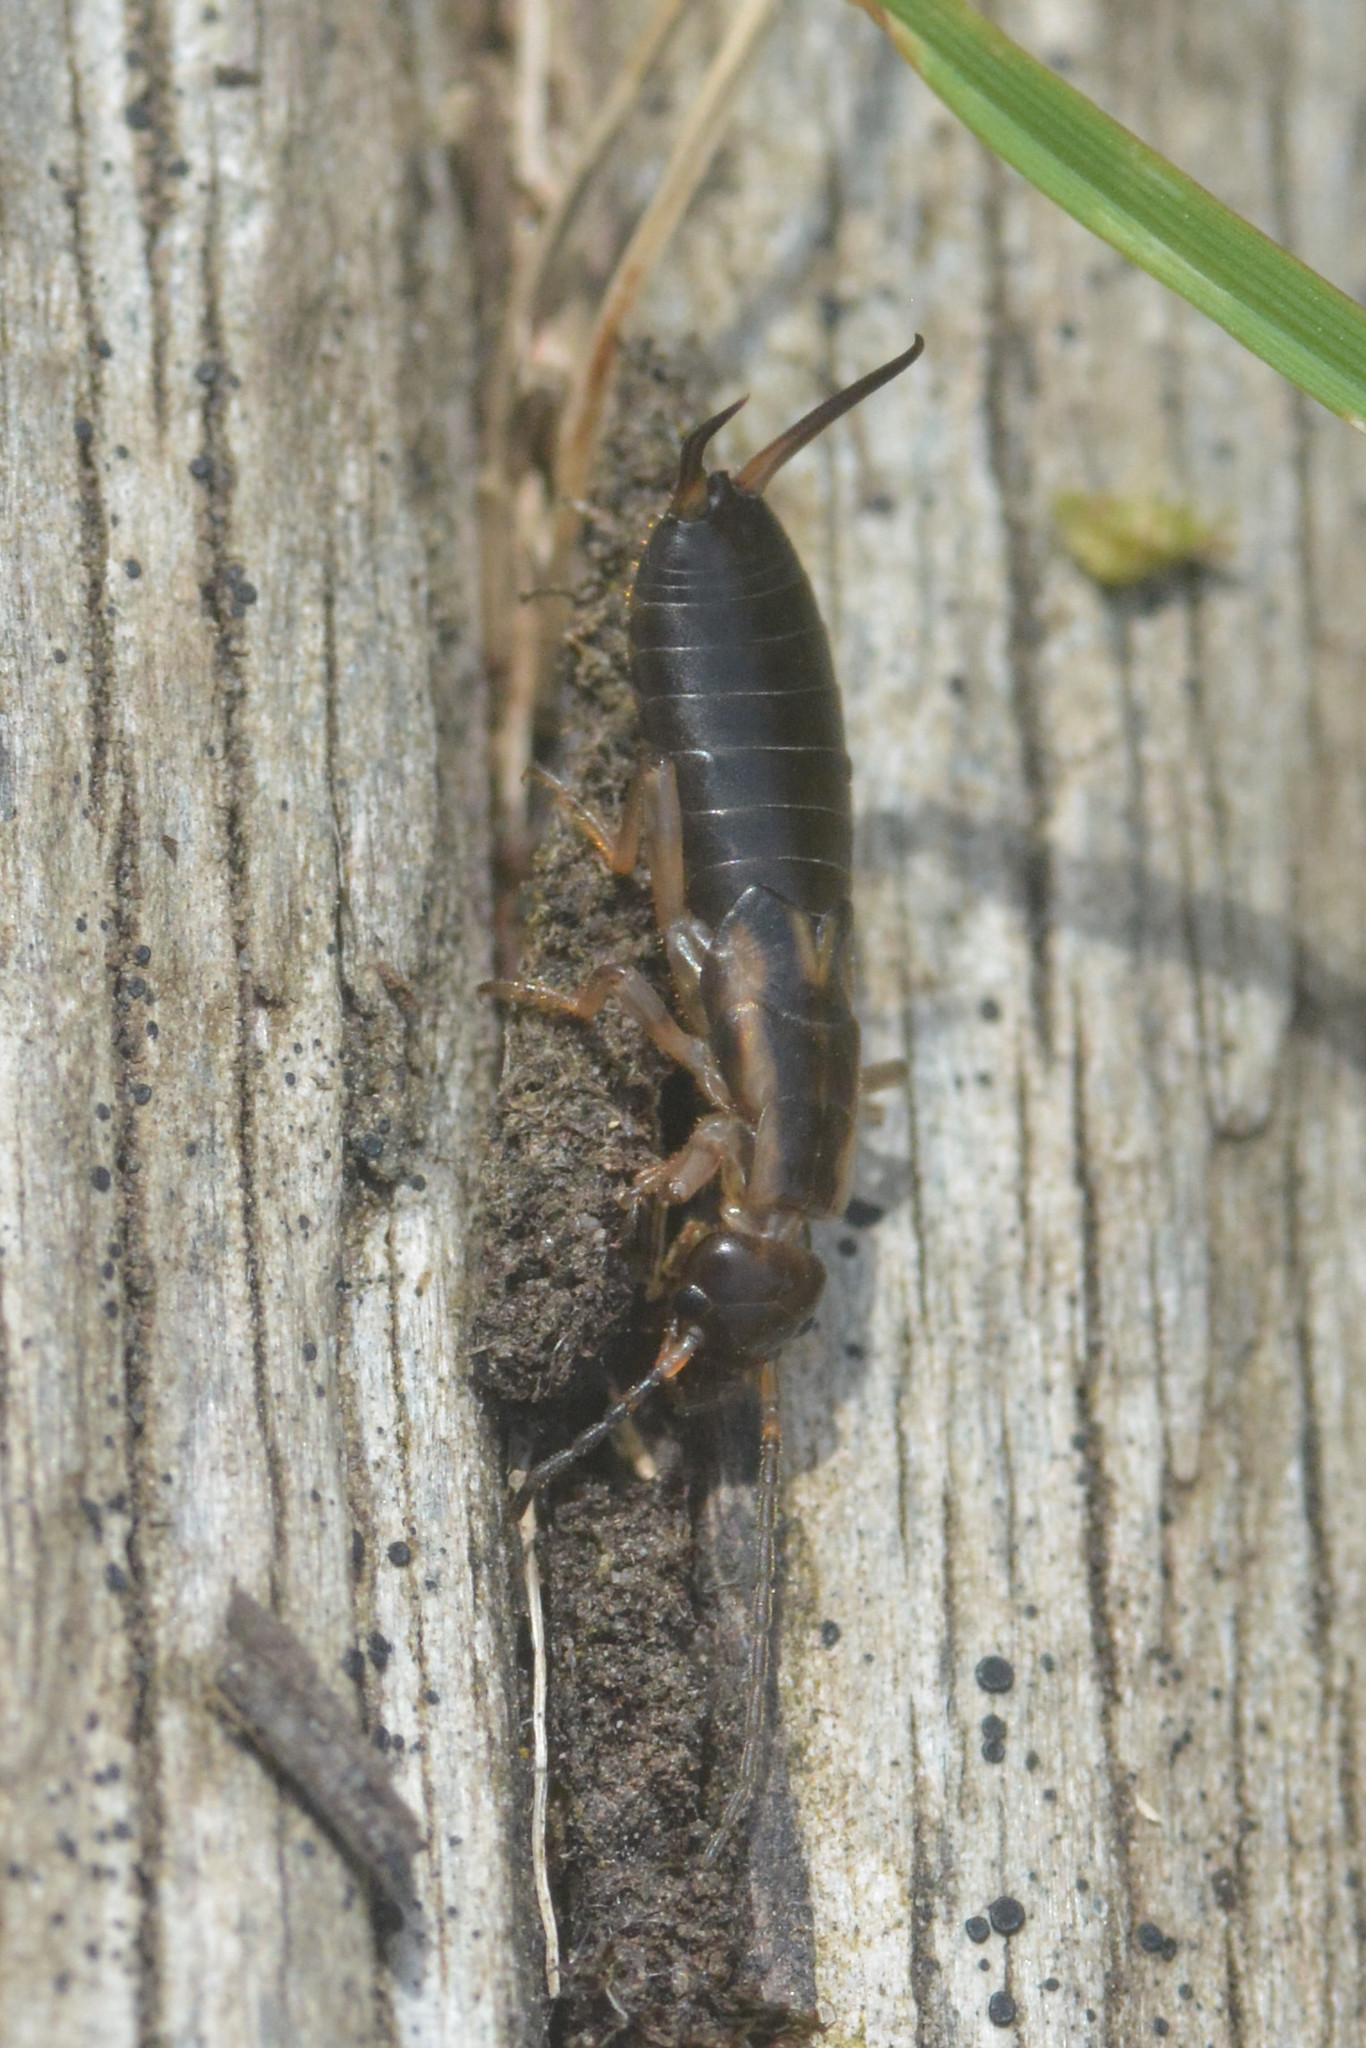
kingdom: Animalia
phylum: Arthropoda
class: Insecta
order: Dermaptera
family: Forficulidae
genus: Forficula
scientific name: Forficula
